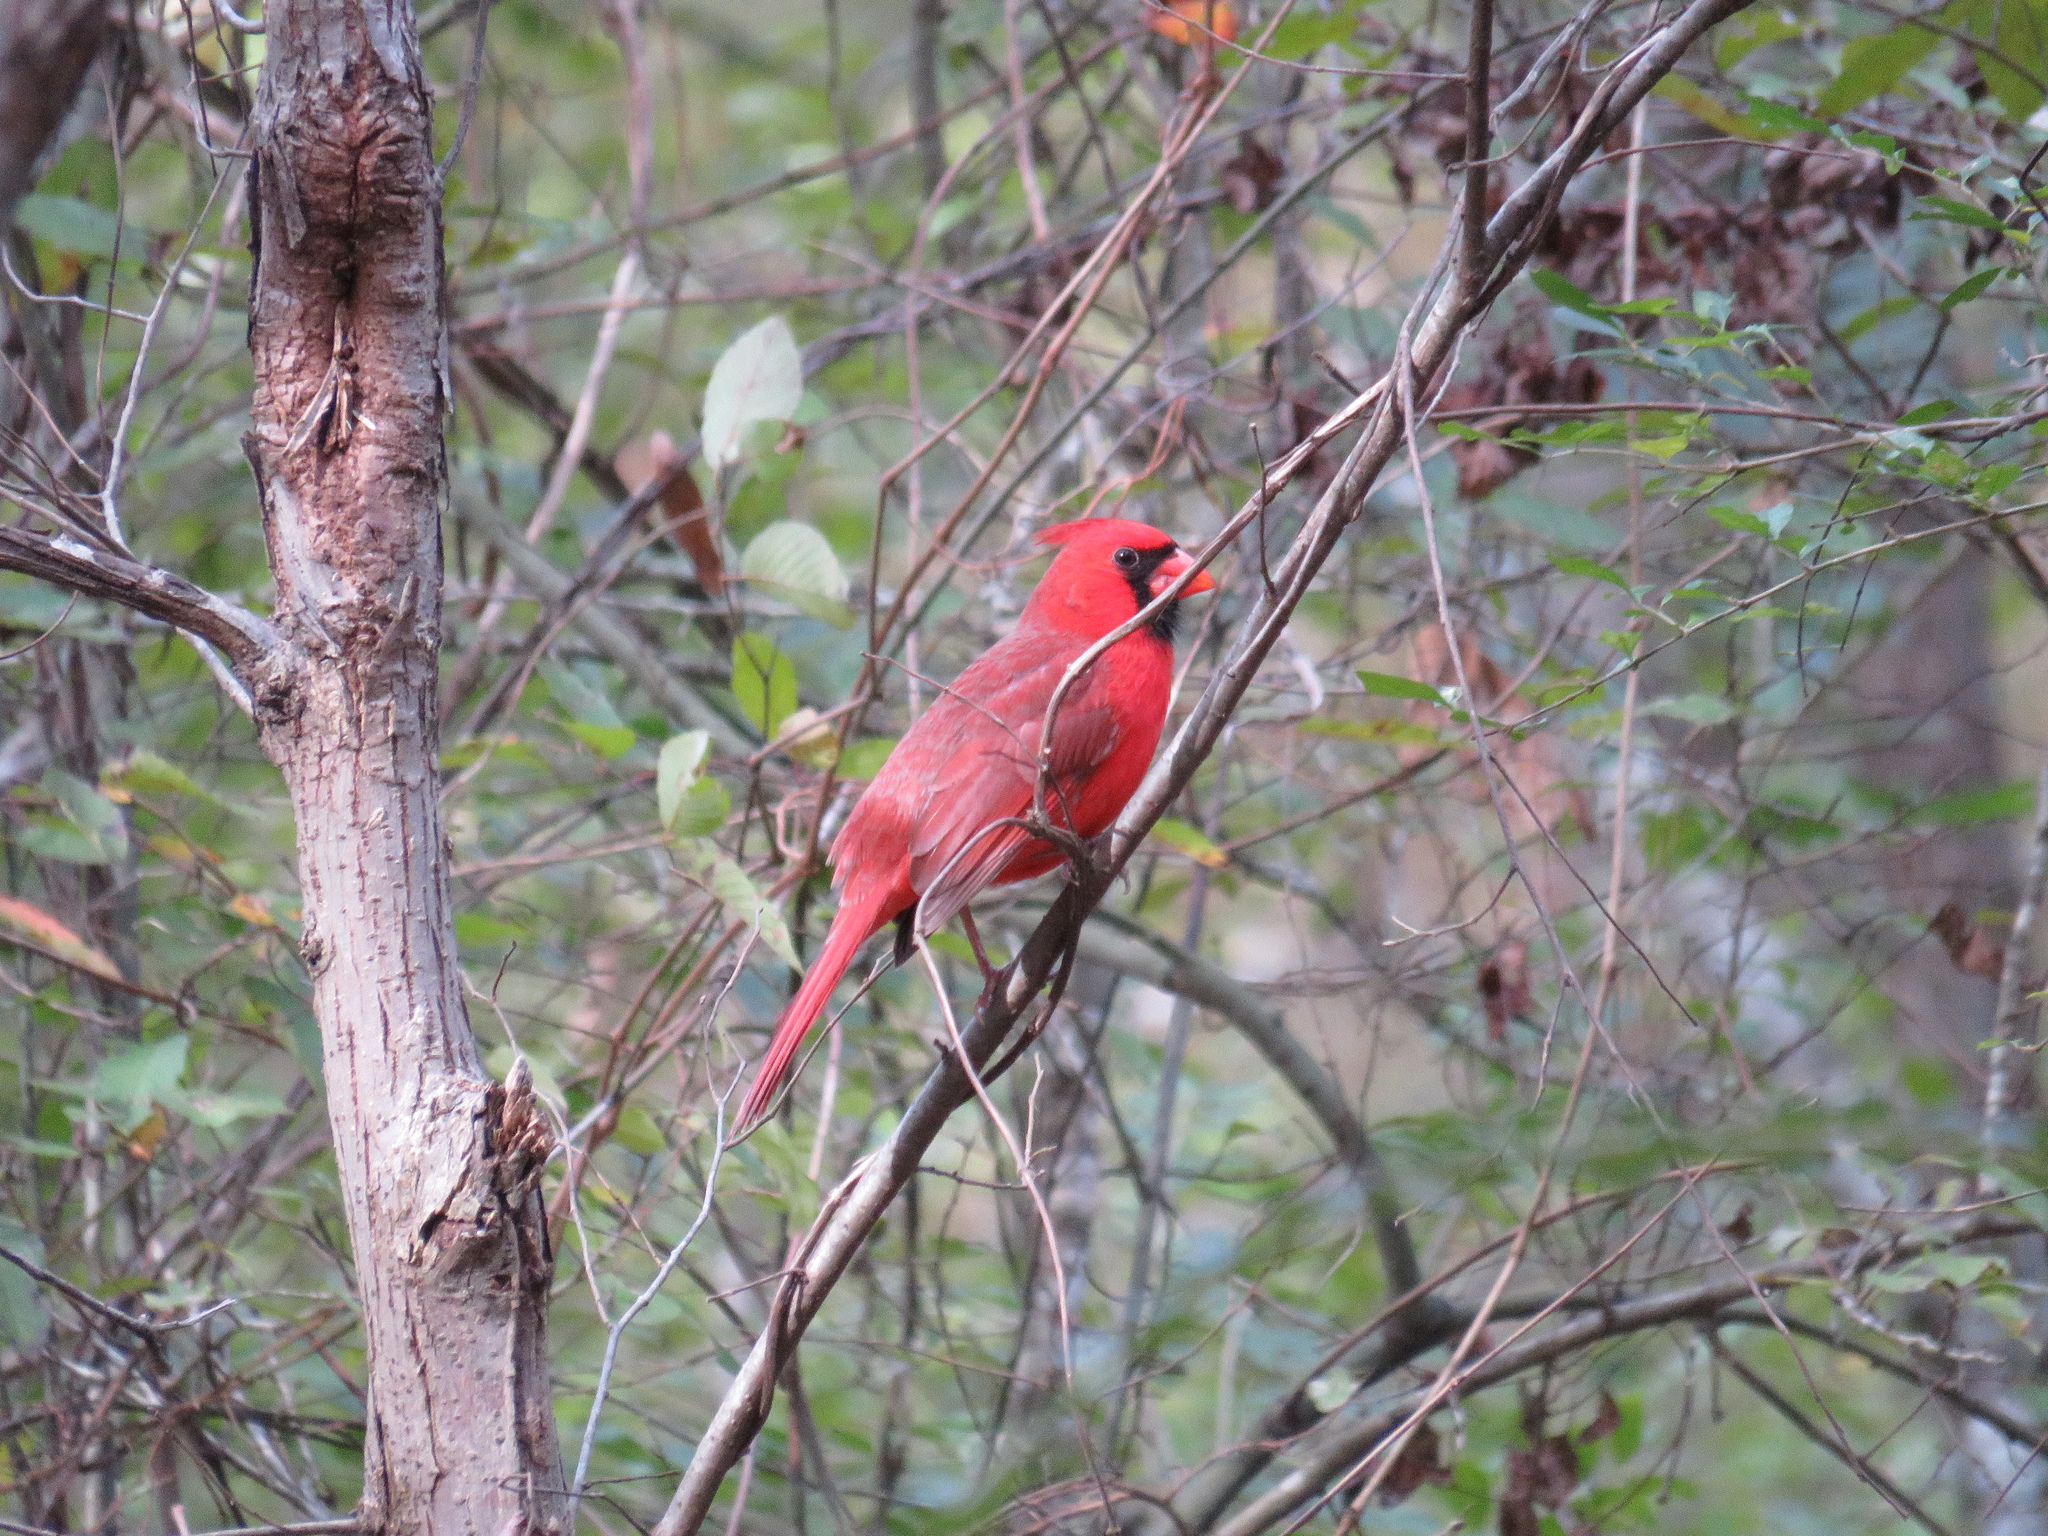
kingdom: Animalia
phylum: Chordata
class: Aves
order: Passeriformes
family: Cardinalidae
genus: Cardinalis
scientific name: Cardinalis cardinalis
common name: Northern cardinal
